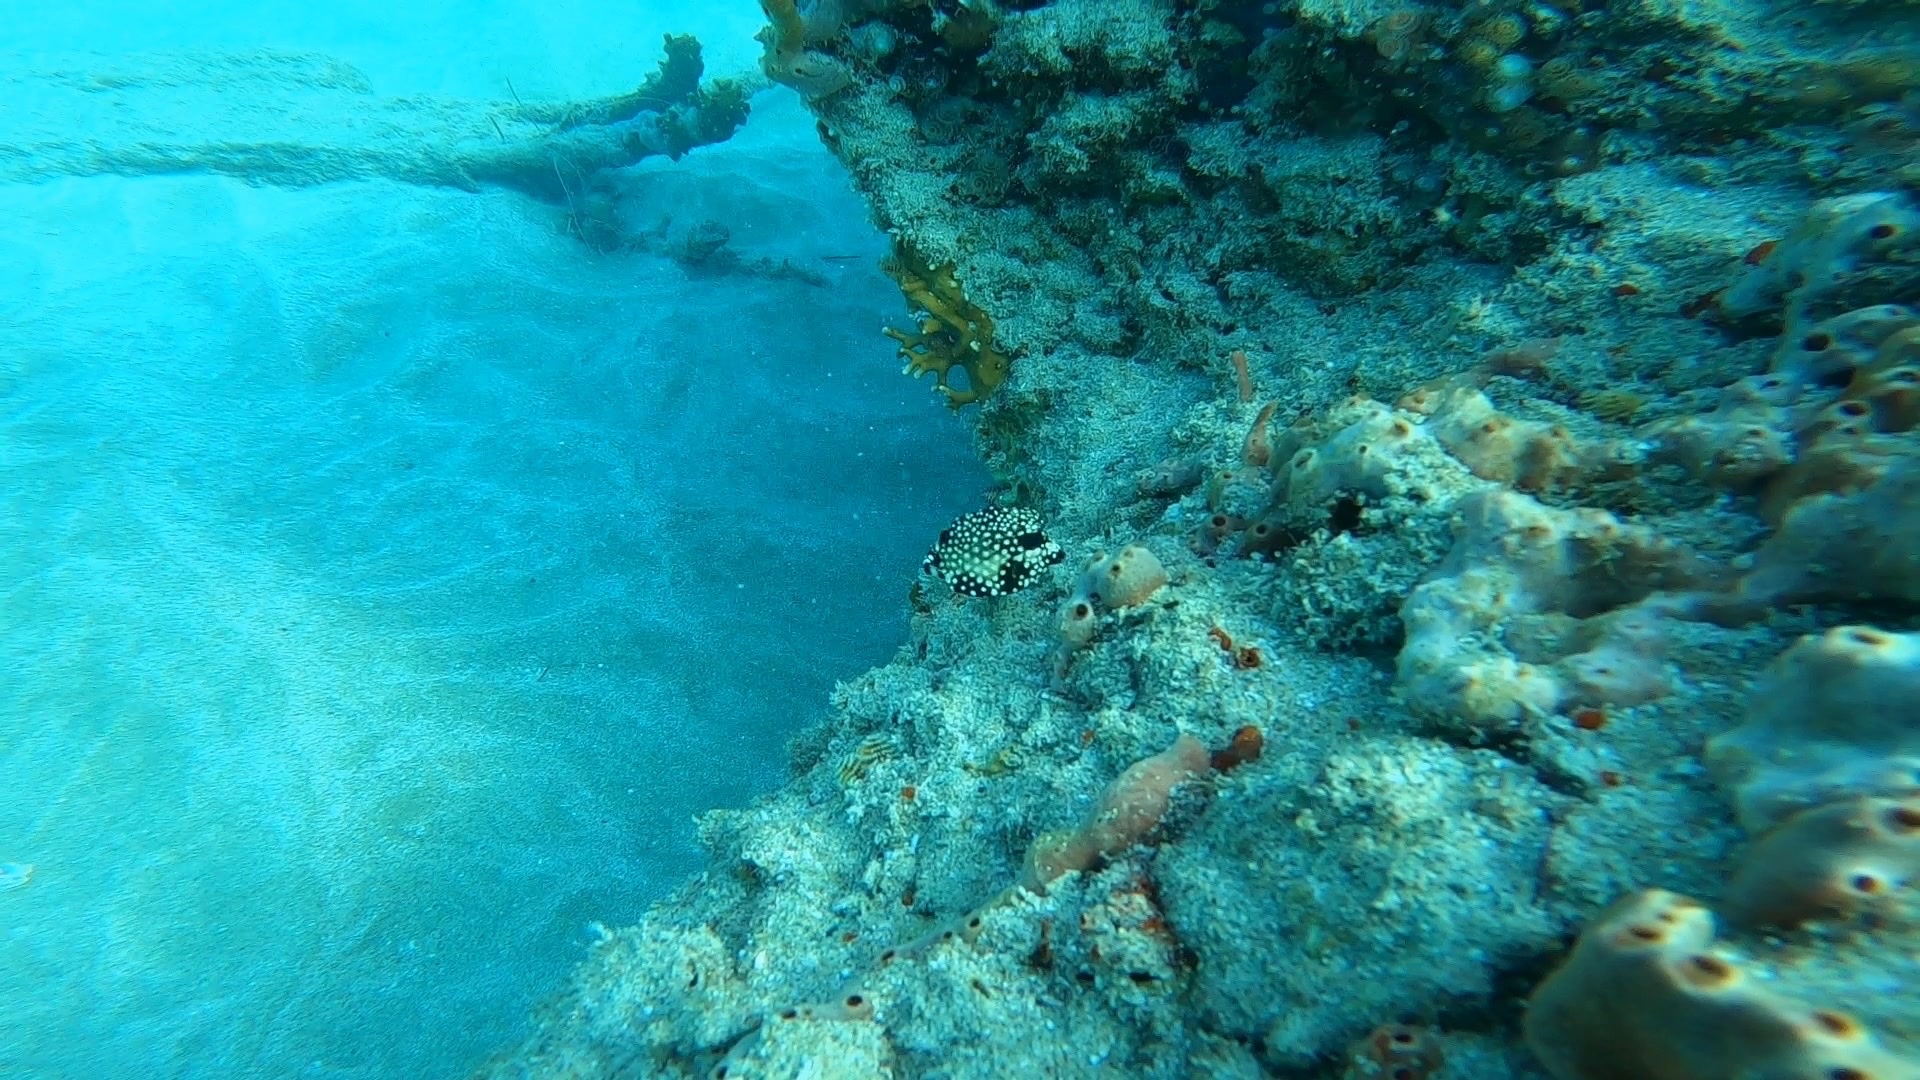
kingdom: Animalia
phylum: Chordata
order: Tetraodontiformes
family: Ostraciidae
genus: Lactophrys
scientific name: Lactophrys triqueter
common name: Smooth trunkfish
